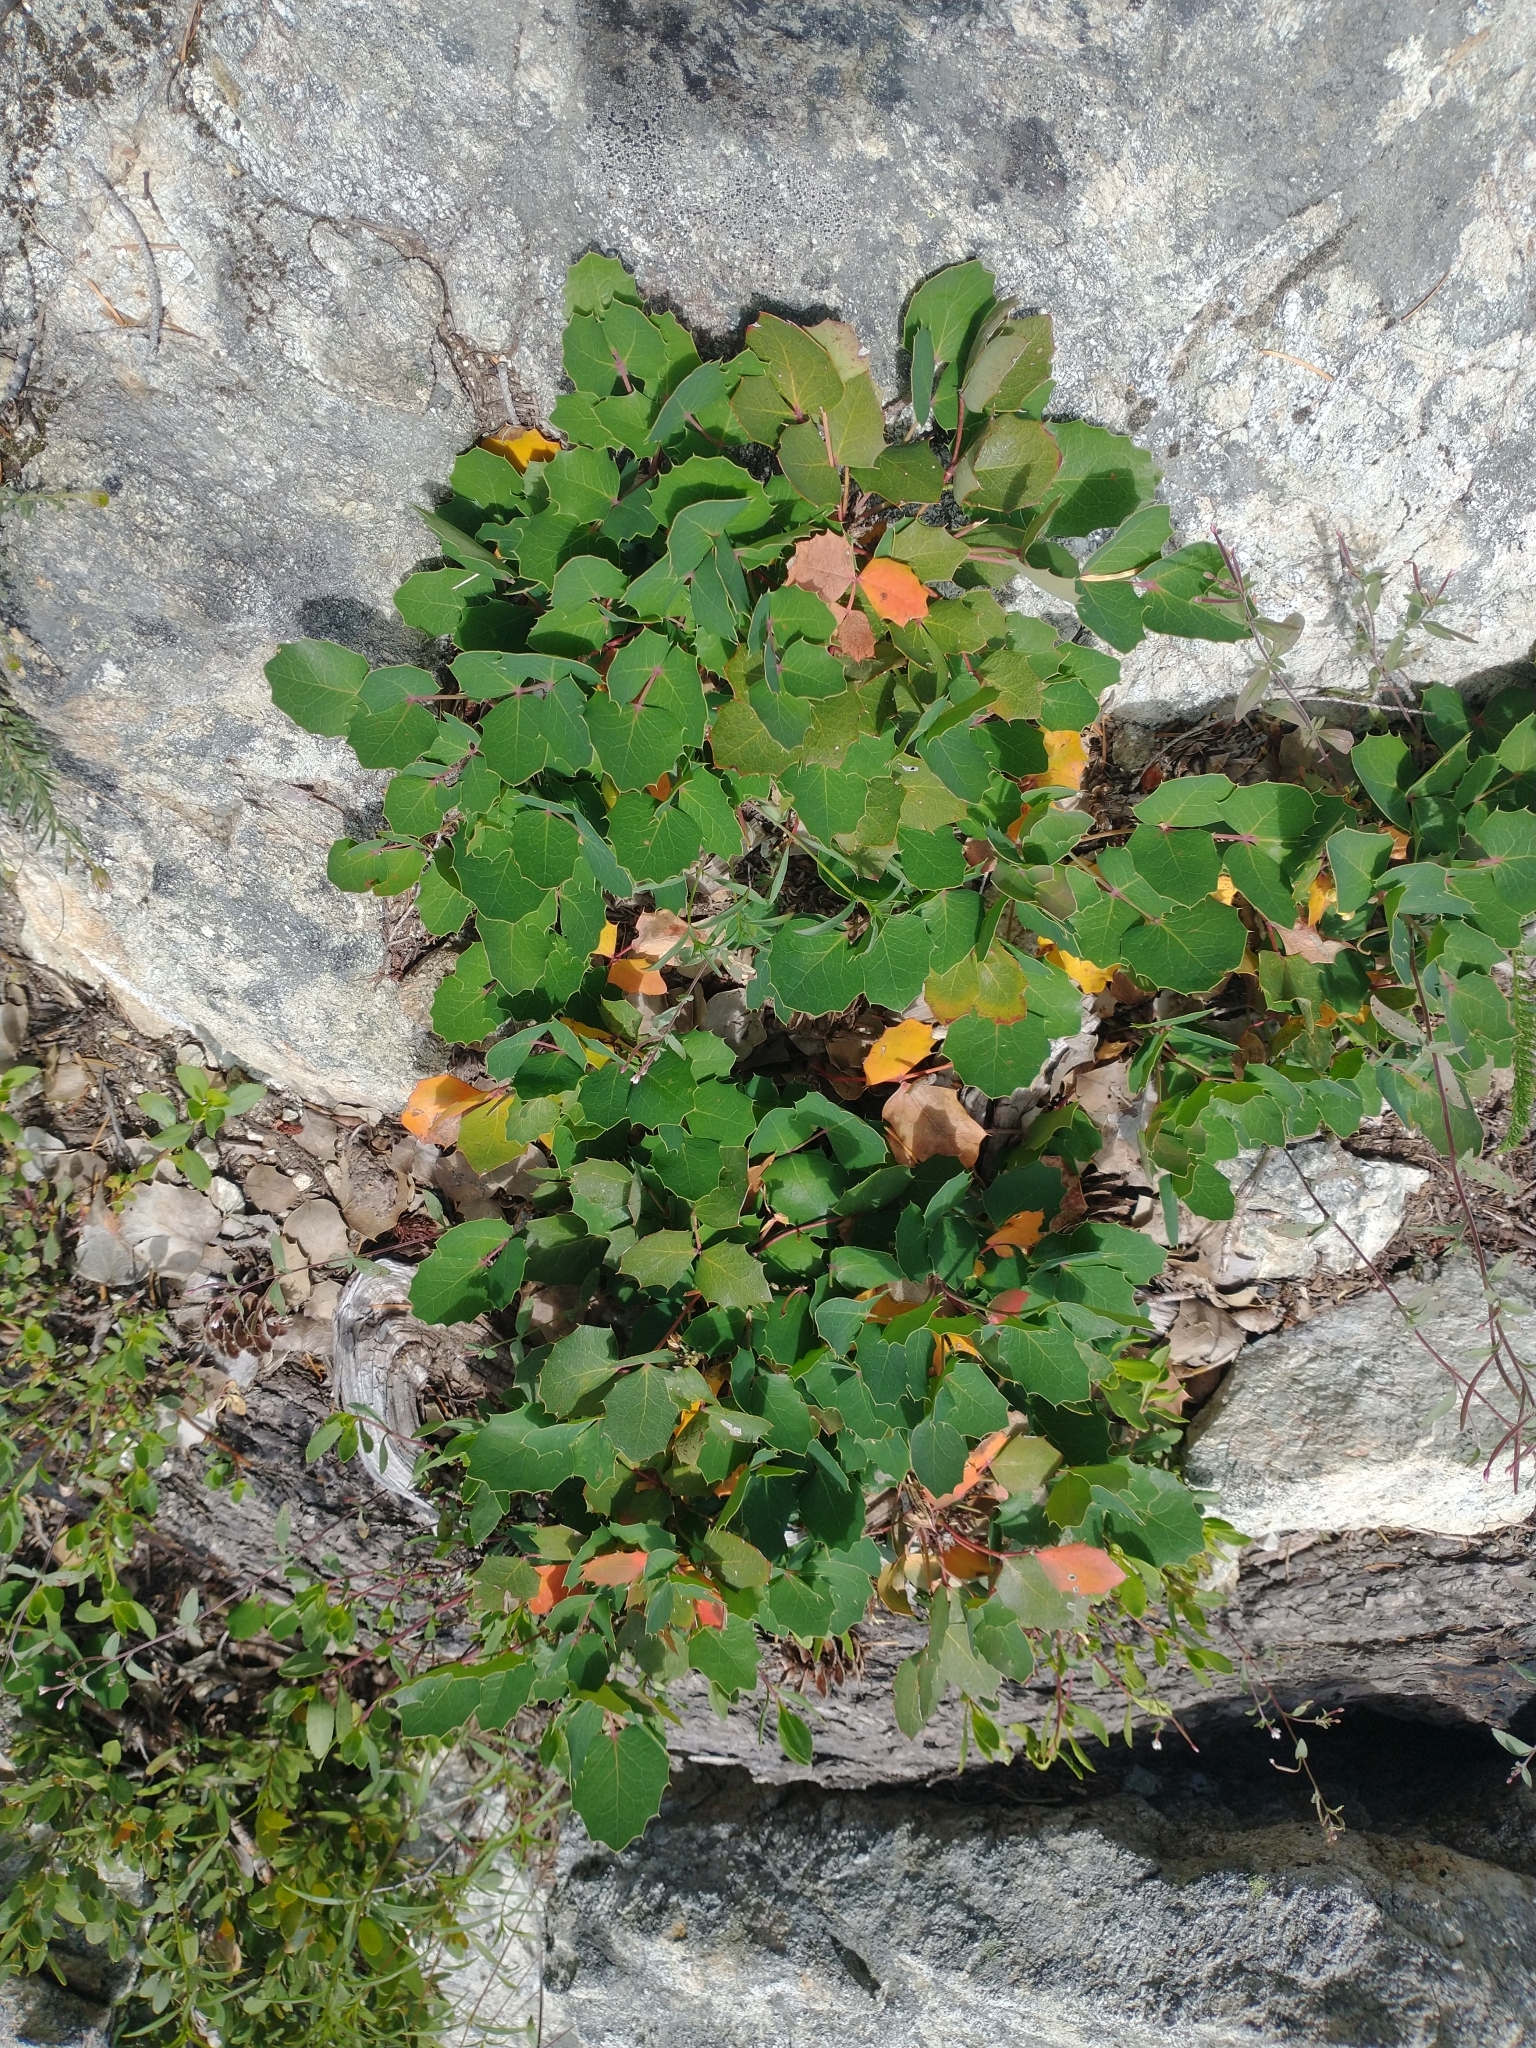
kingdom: Plantae
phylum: Tracheophyta
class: Magnoliopsida
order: Ranunculales
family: Berberidaceae
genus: Mahonia
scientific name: Mahonia repens
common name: Creeping oregon-grape
